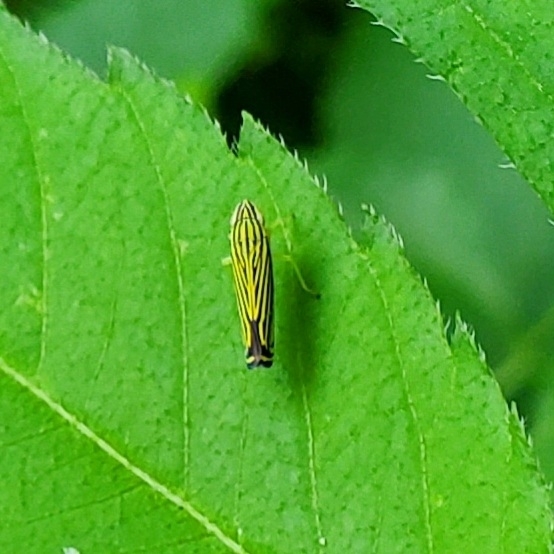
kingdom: Animalia
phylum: Arthropoda
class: Insecta
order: Hemiptera
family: Cicadellidae
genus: Sibovia
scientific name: Sibovia occatoria
